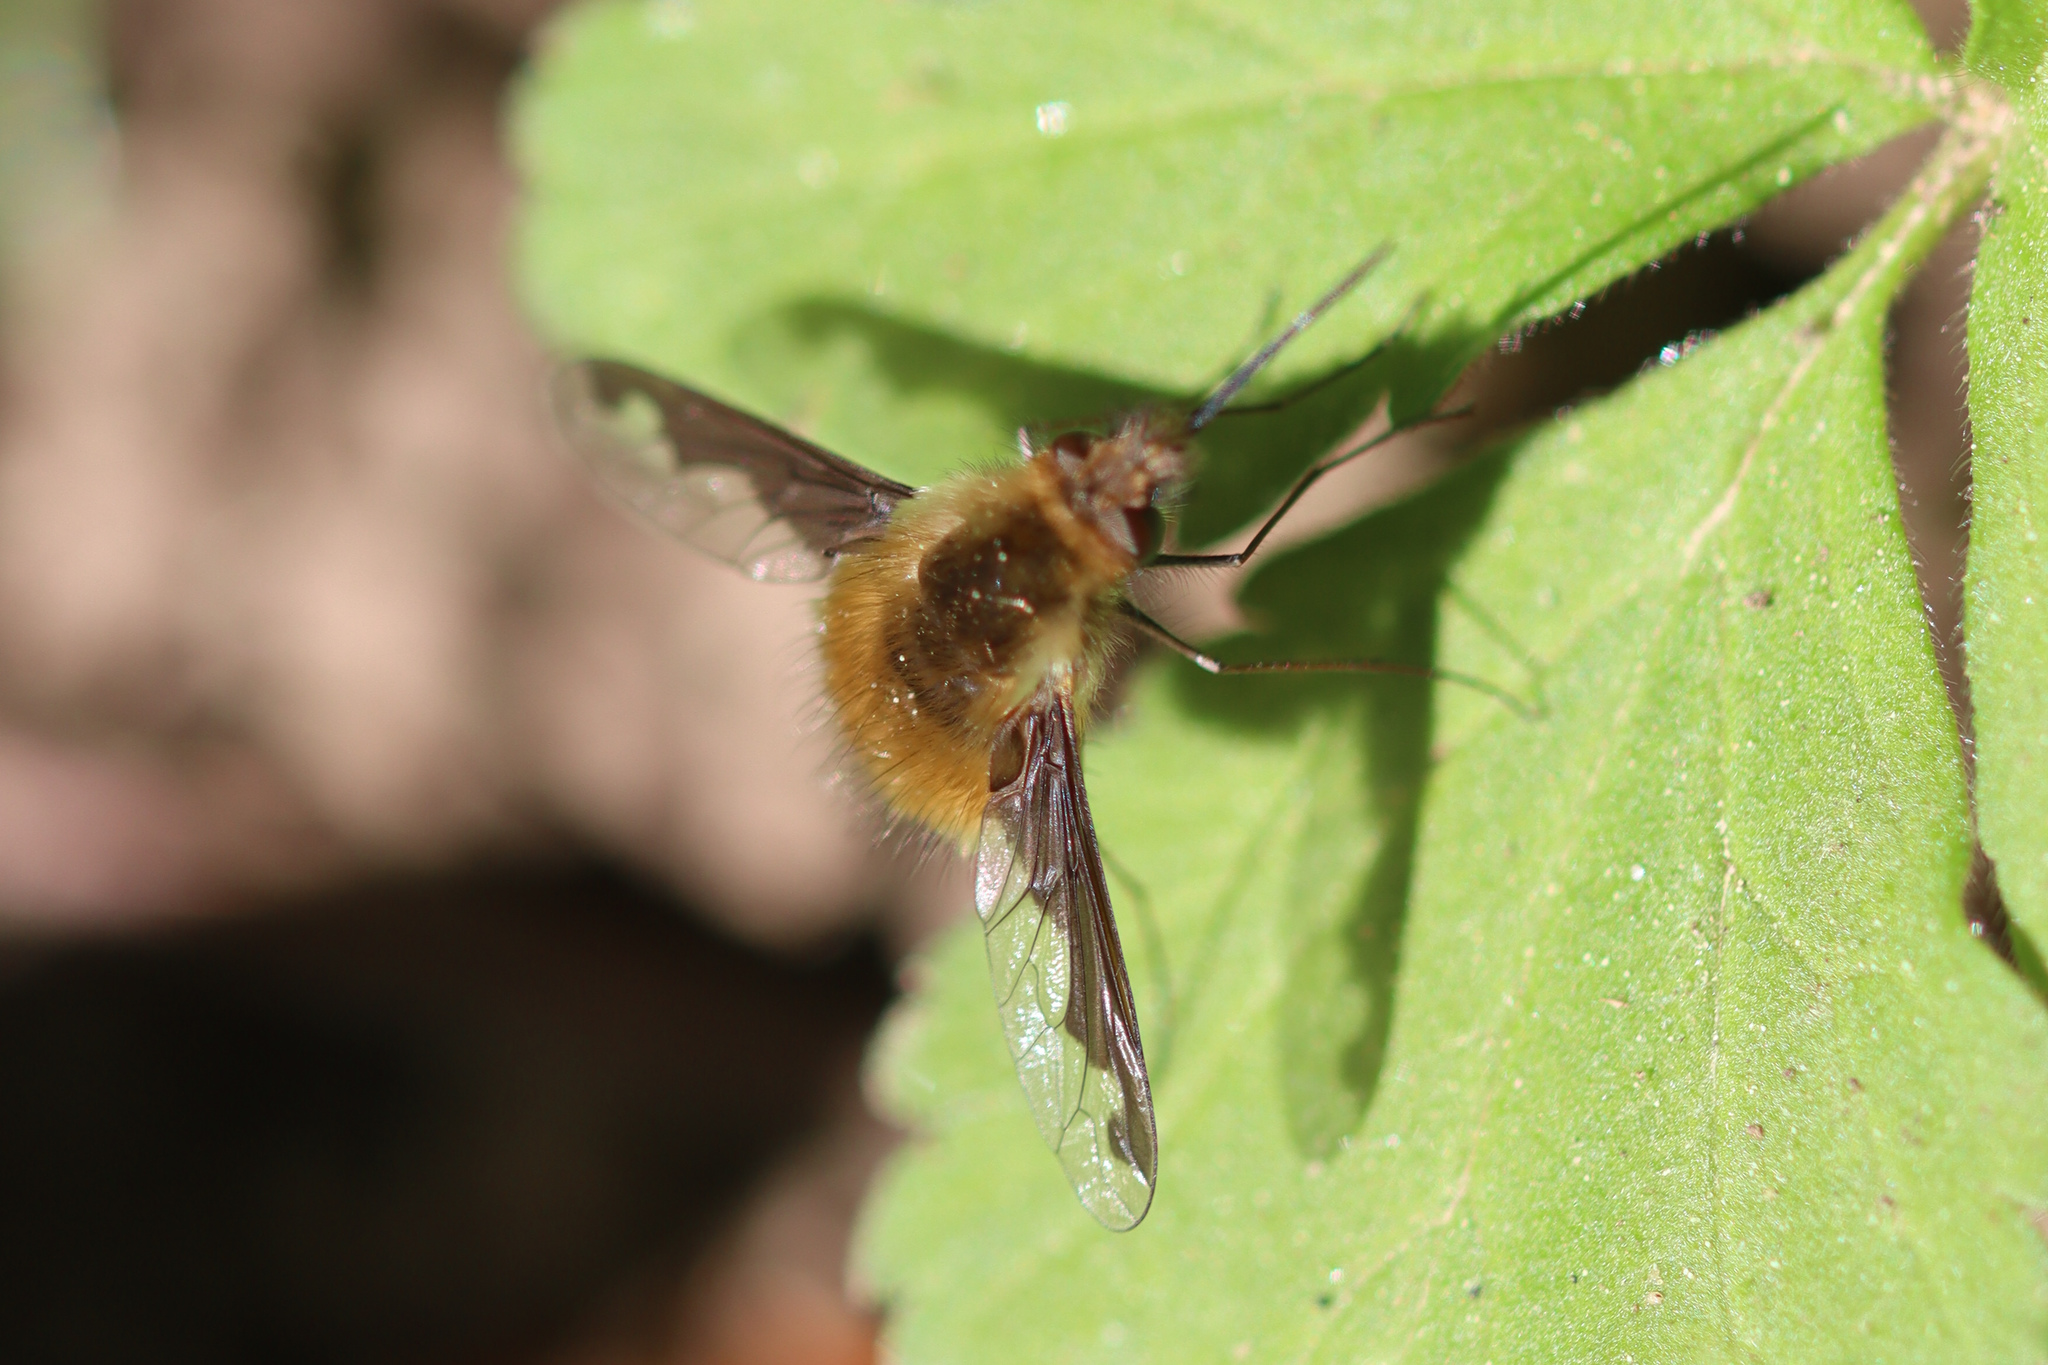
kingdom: Animalia
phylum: Arthropoda
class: Insecta
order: Diptera
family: Bombyliidae
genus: Bombylius
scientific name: Bombylius major
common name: Bee fly
